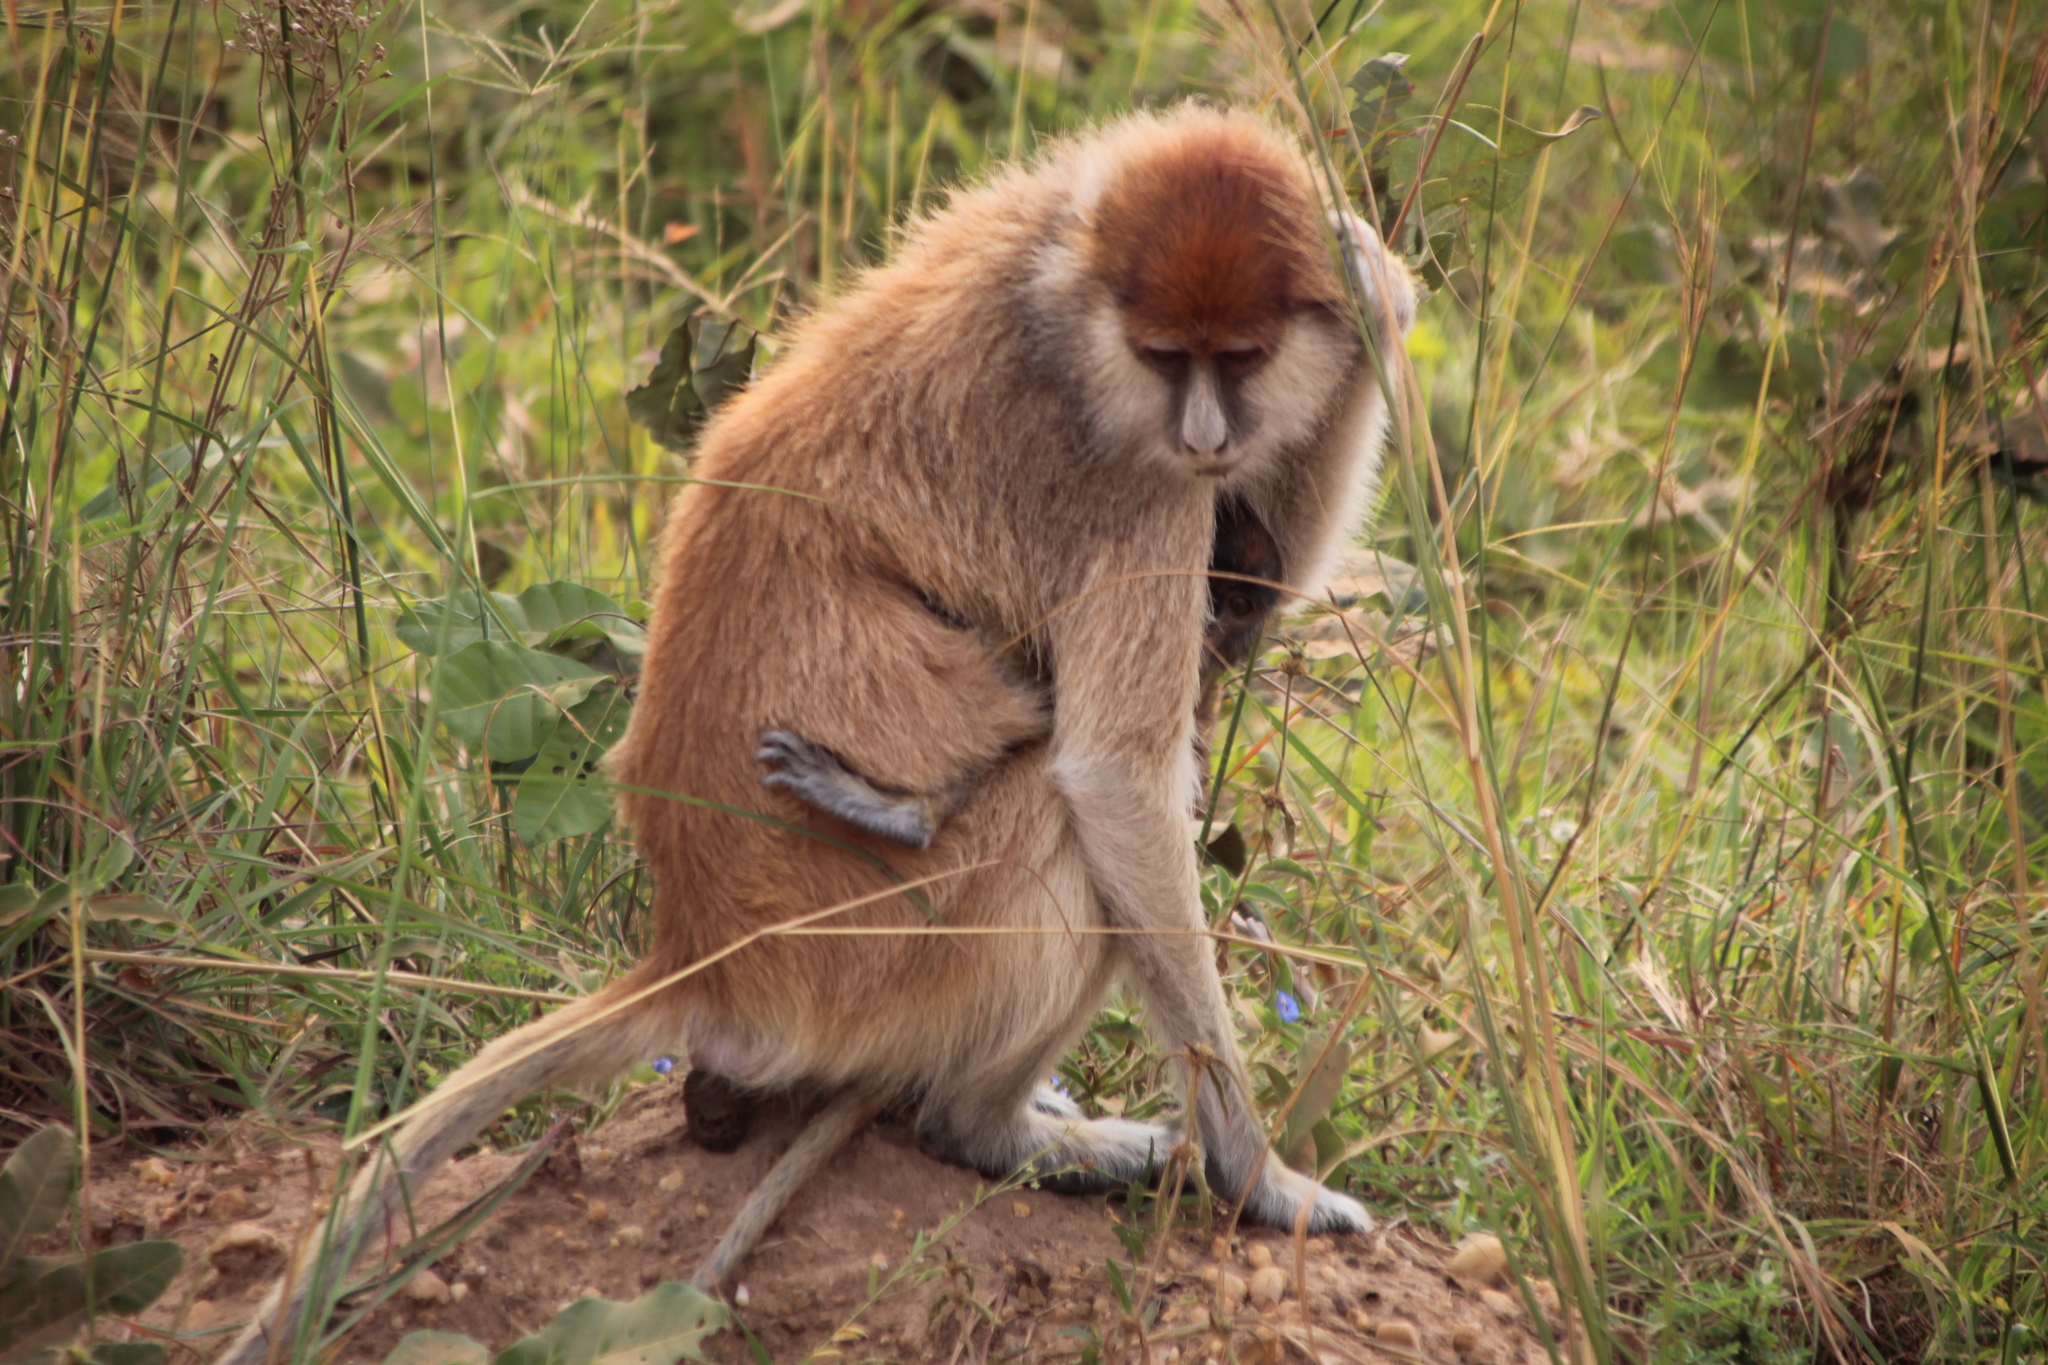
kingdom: Animalia
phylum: Chordata
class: Mammalia
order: Primates
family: Cercopithecidae
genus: Erythrocebus
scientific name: Erythrocebus patas
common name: Patas monkey
